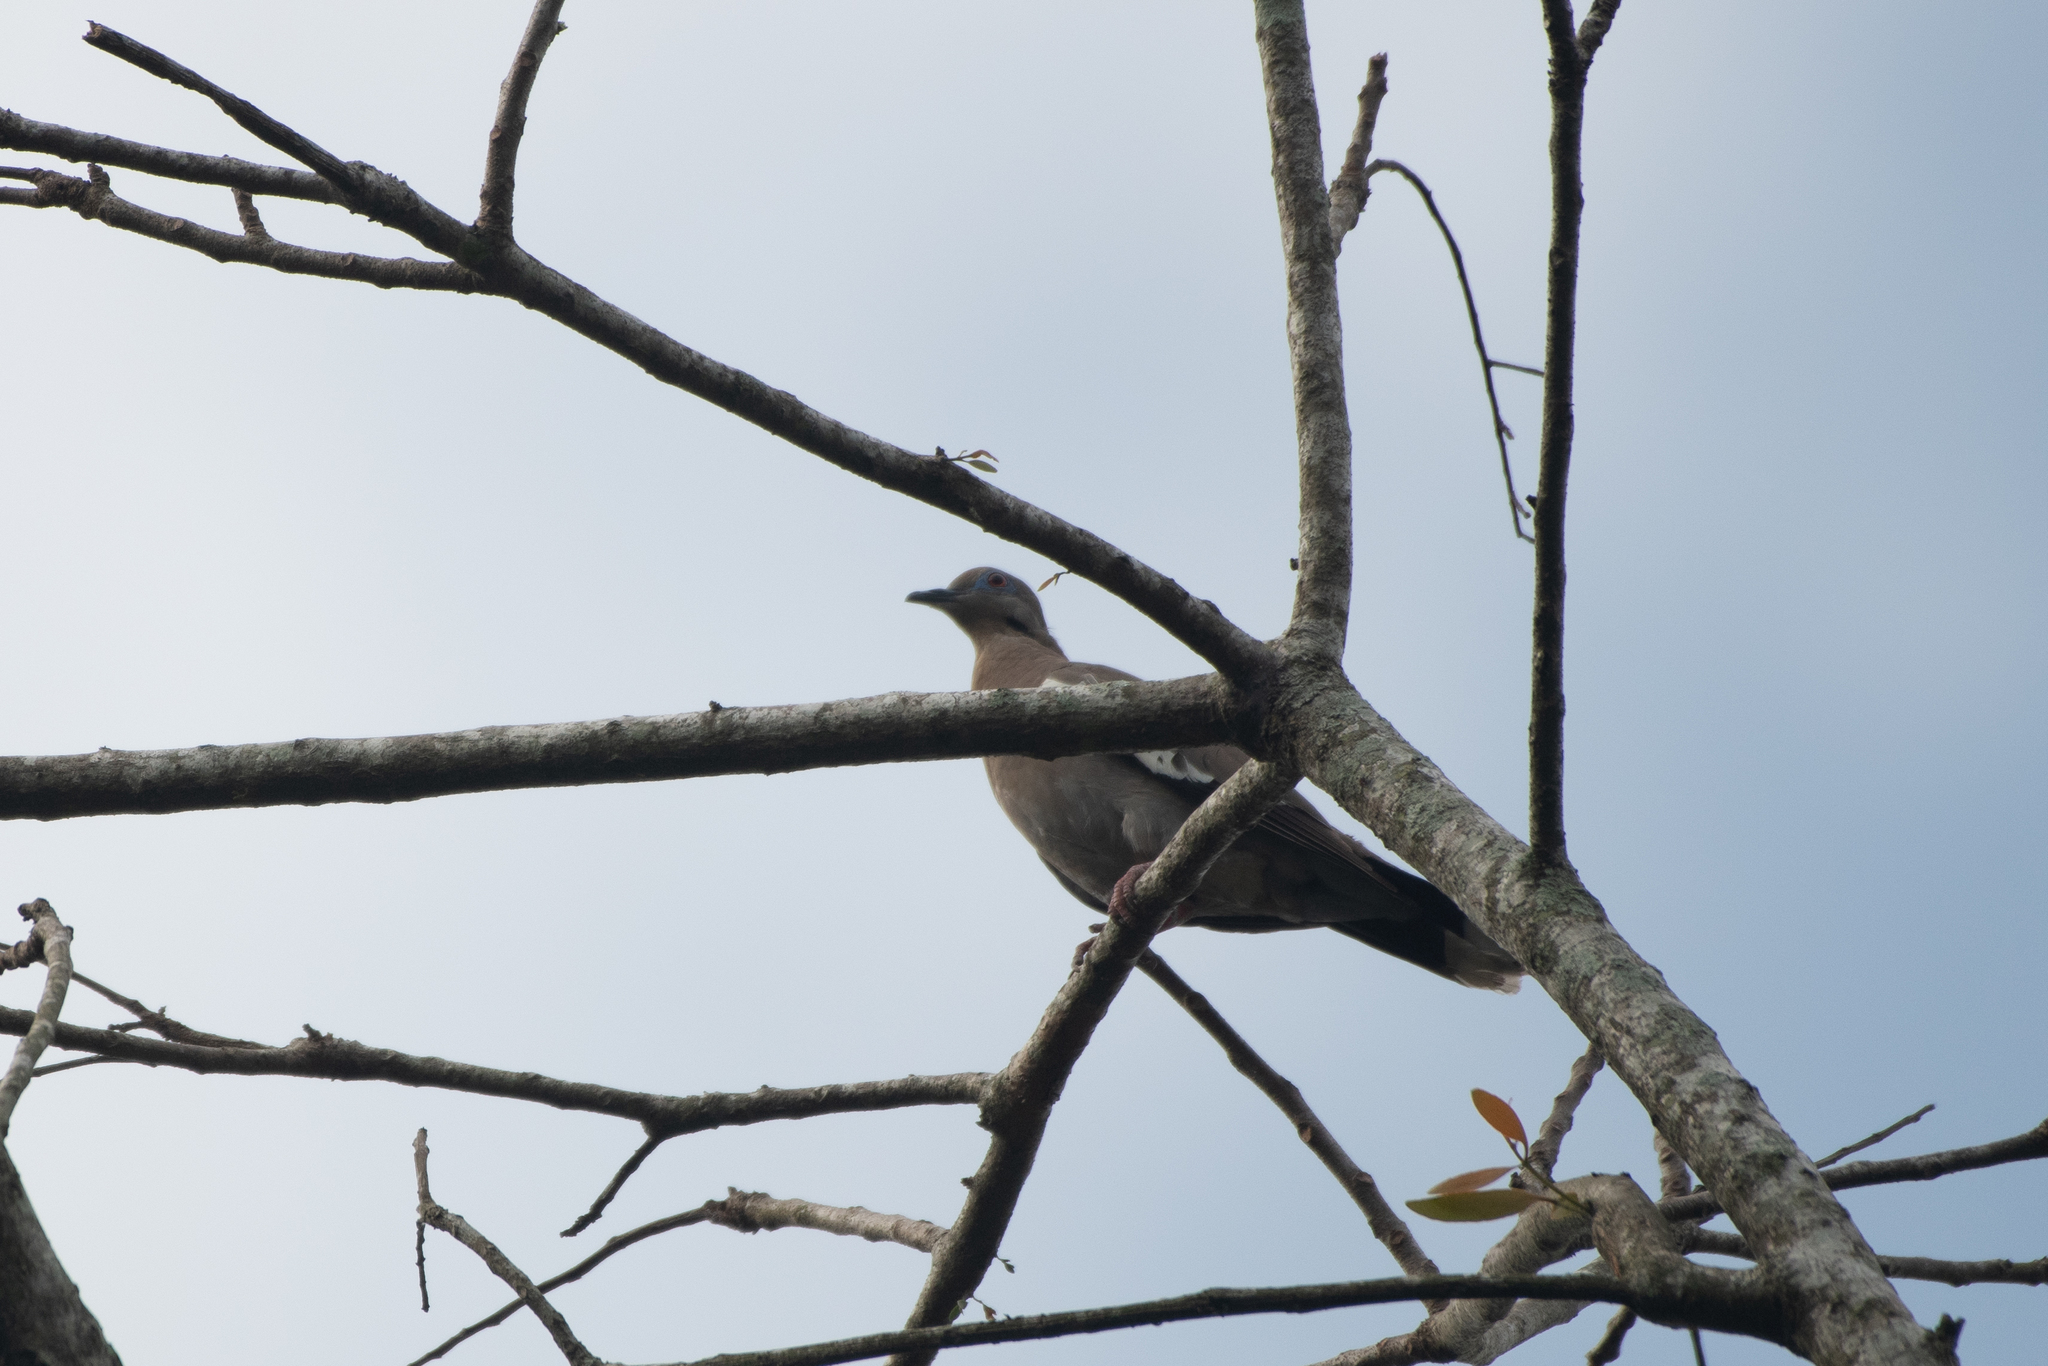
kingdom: Animalia
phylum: Chordata
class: Aves
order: Columbiformes
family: Columbidae
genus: Zenaida
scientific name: Zenaida asiatica
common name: White-winged dove
